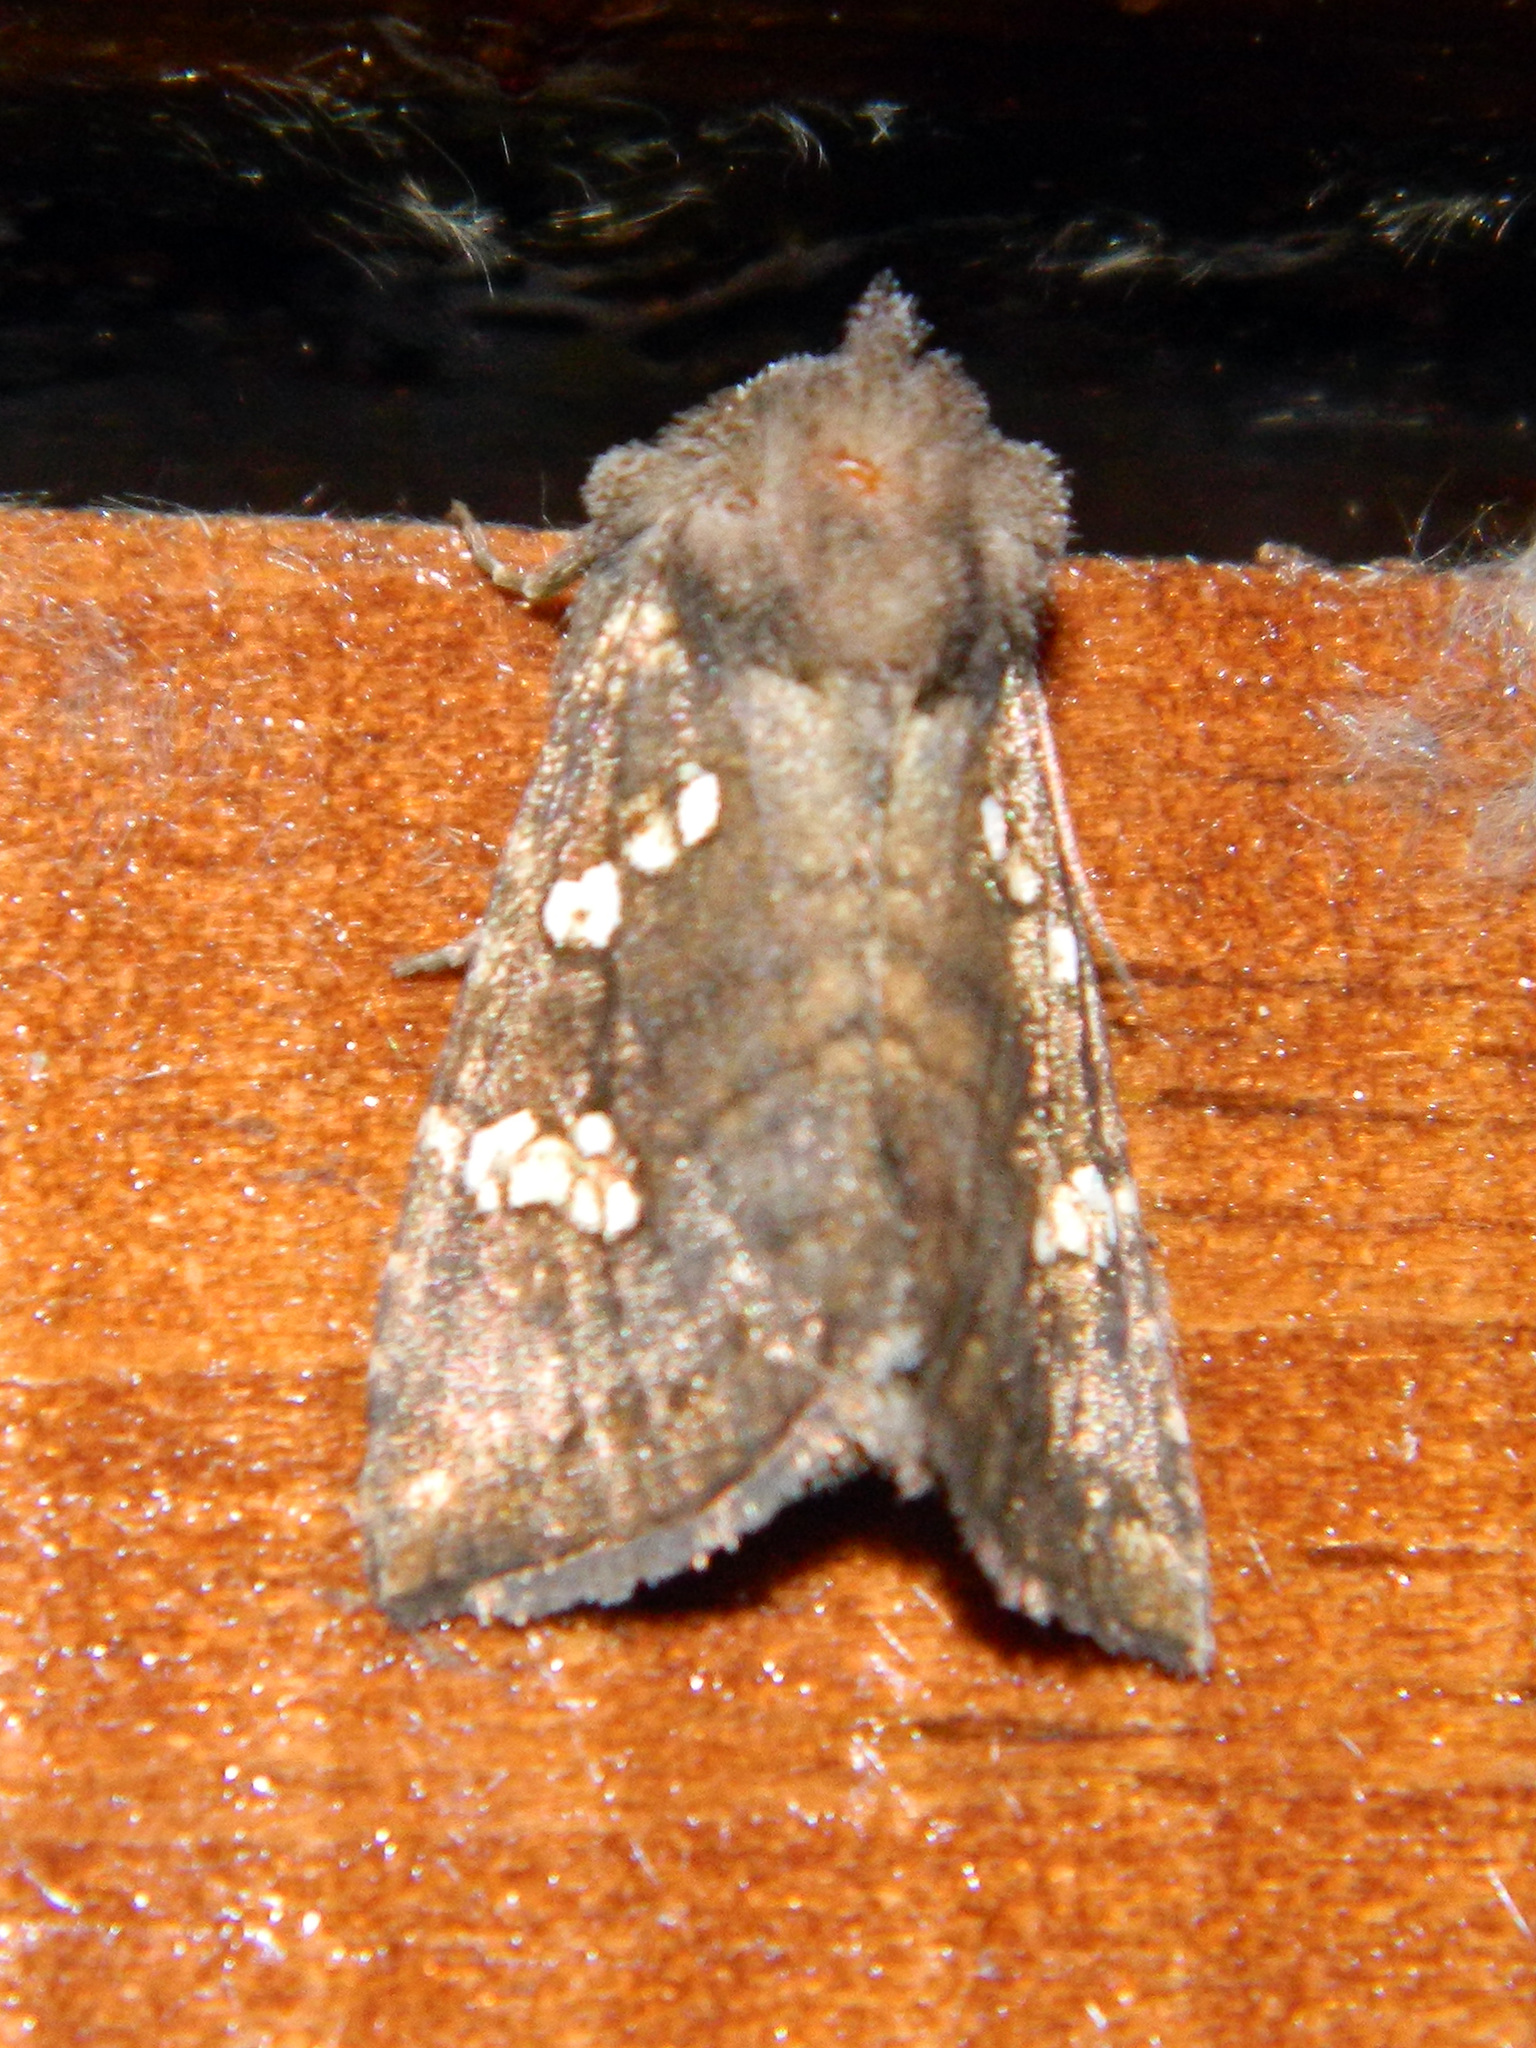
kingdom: Animalia
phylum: Arthropoda
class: Insecta
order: Lepidoptera
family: Noctuidae
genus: Papaipema
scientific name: Papaipema unimoda
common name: Meadow rue borer moth
